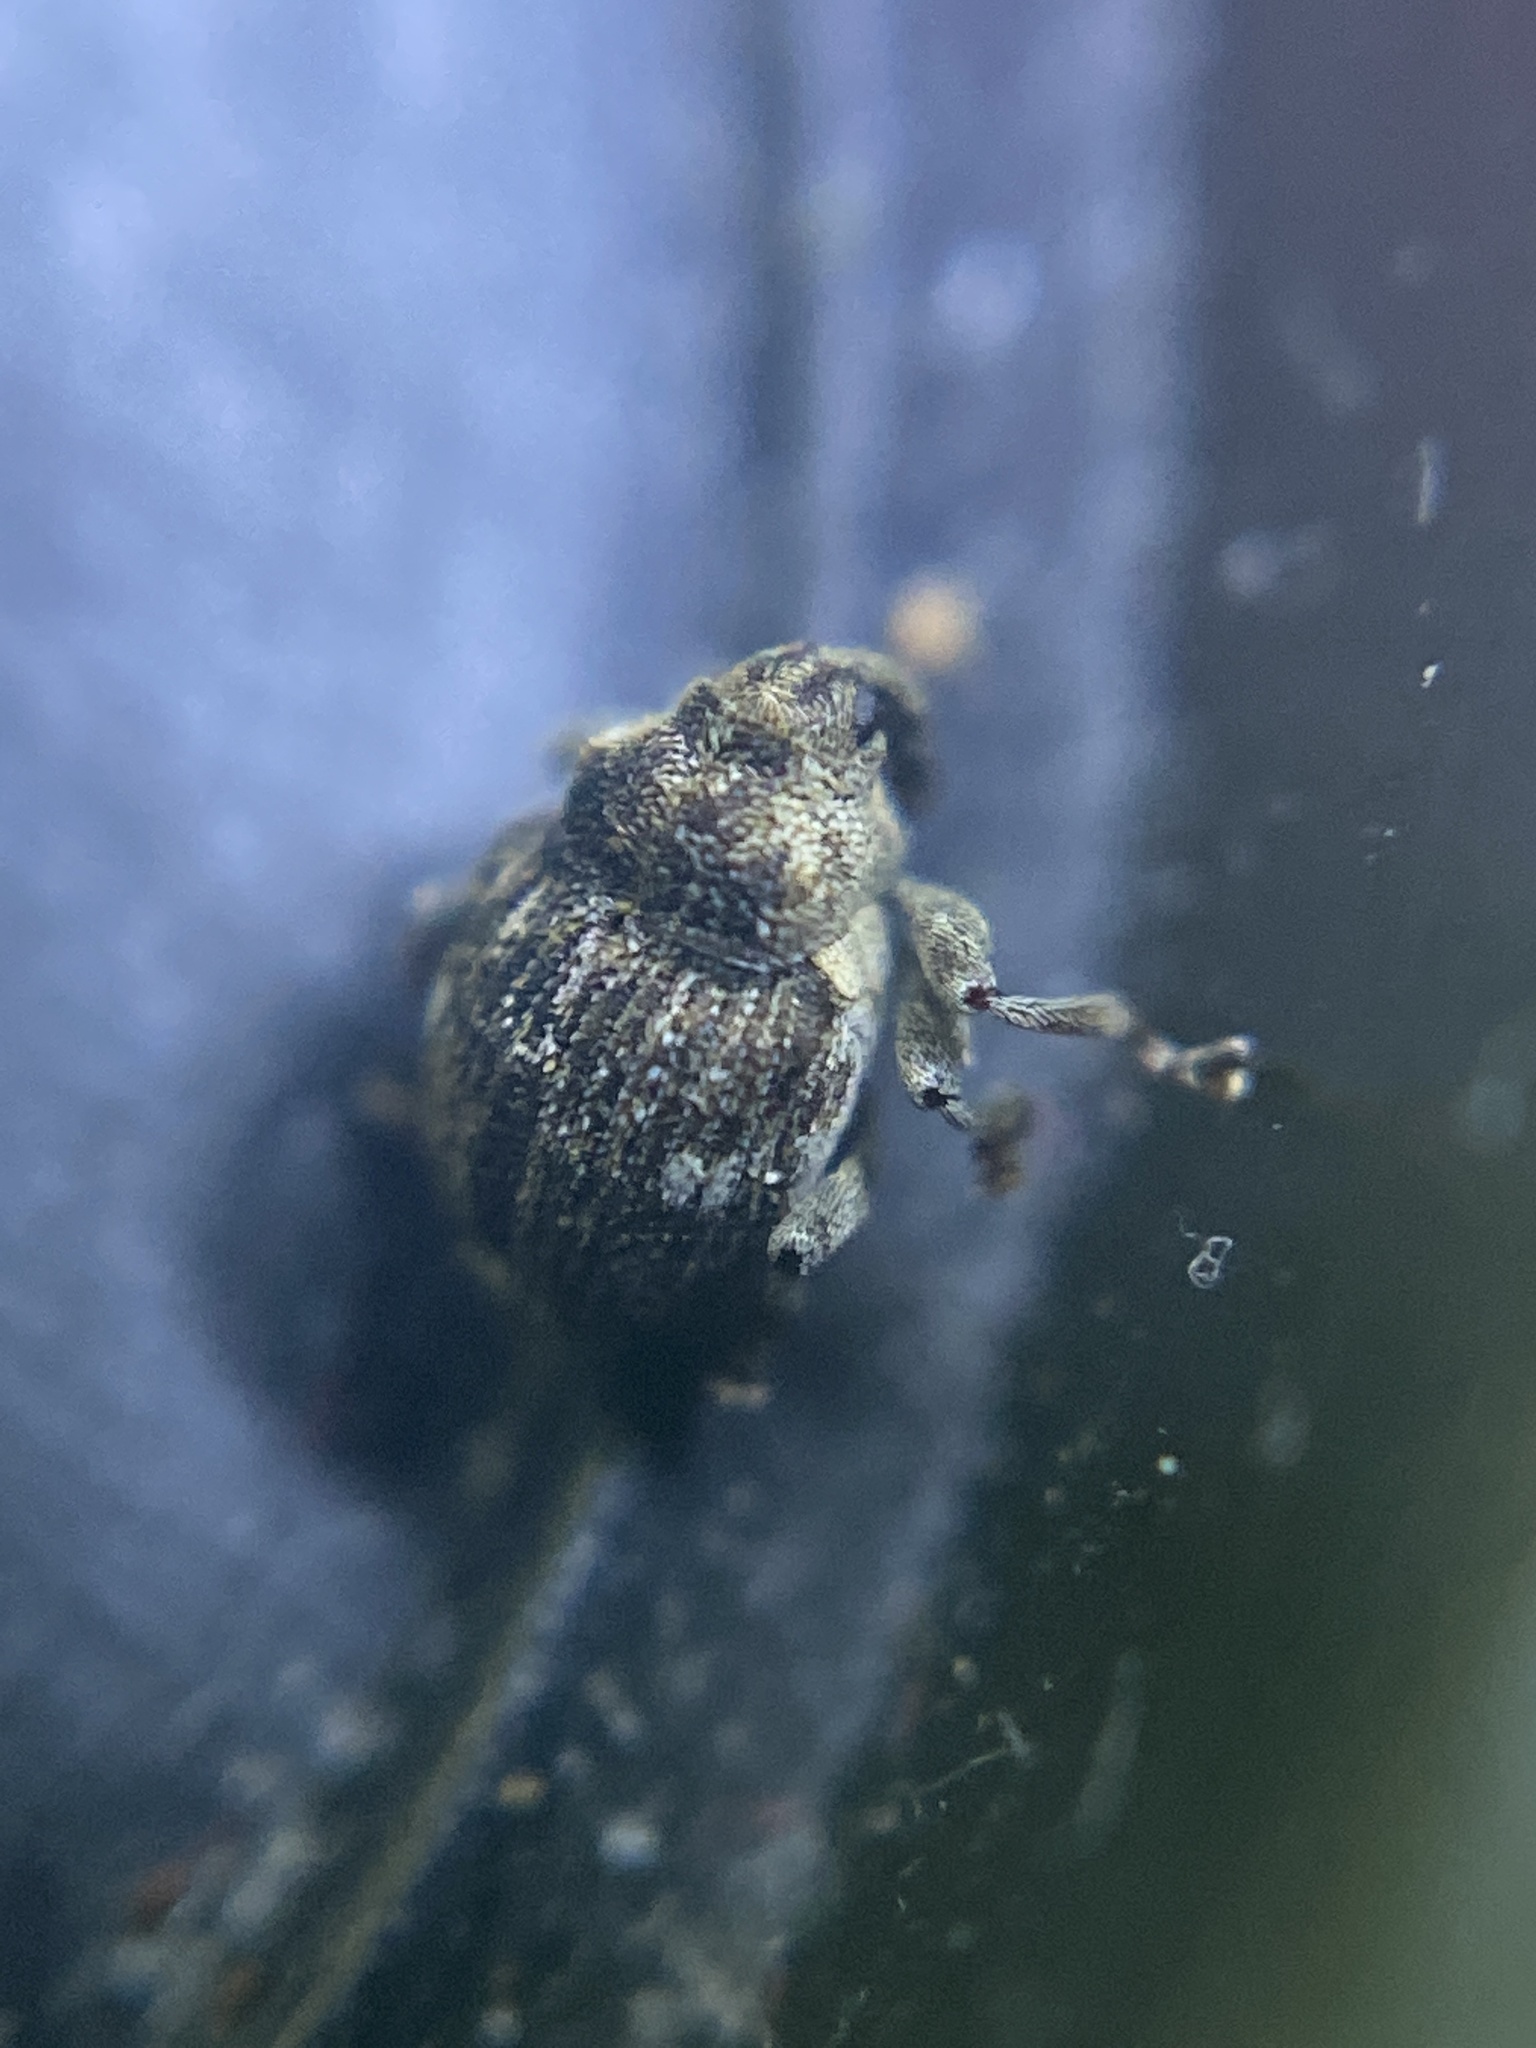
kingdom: Animalia
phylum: Arthropoda
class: Insecta
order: Coleoptera
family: Curculionidae
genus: Nedyus
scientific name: Nedyus quadrimaculatus
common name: Small nettle weevil
